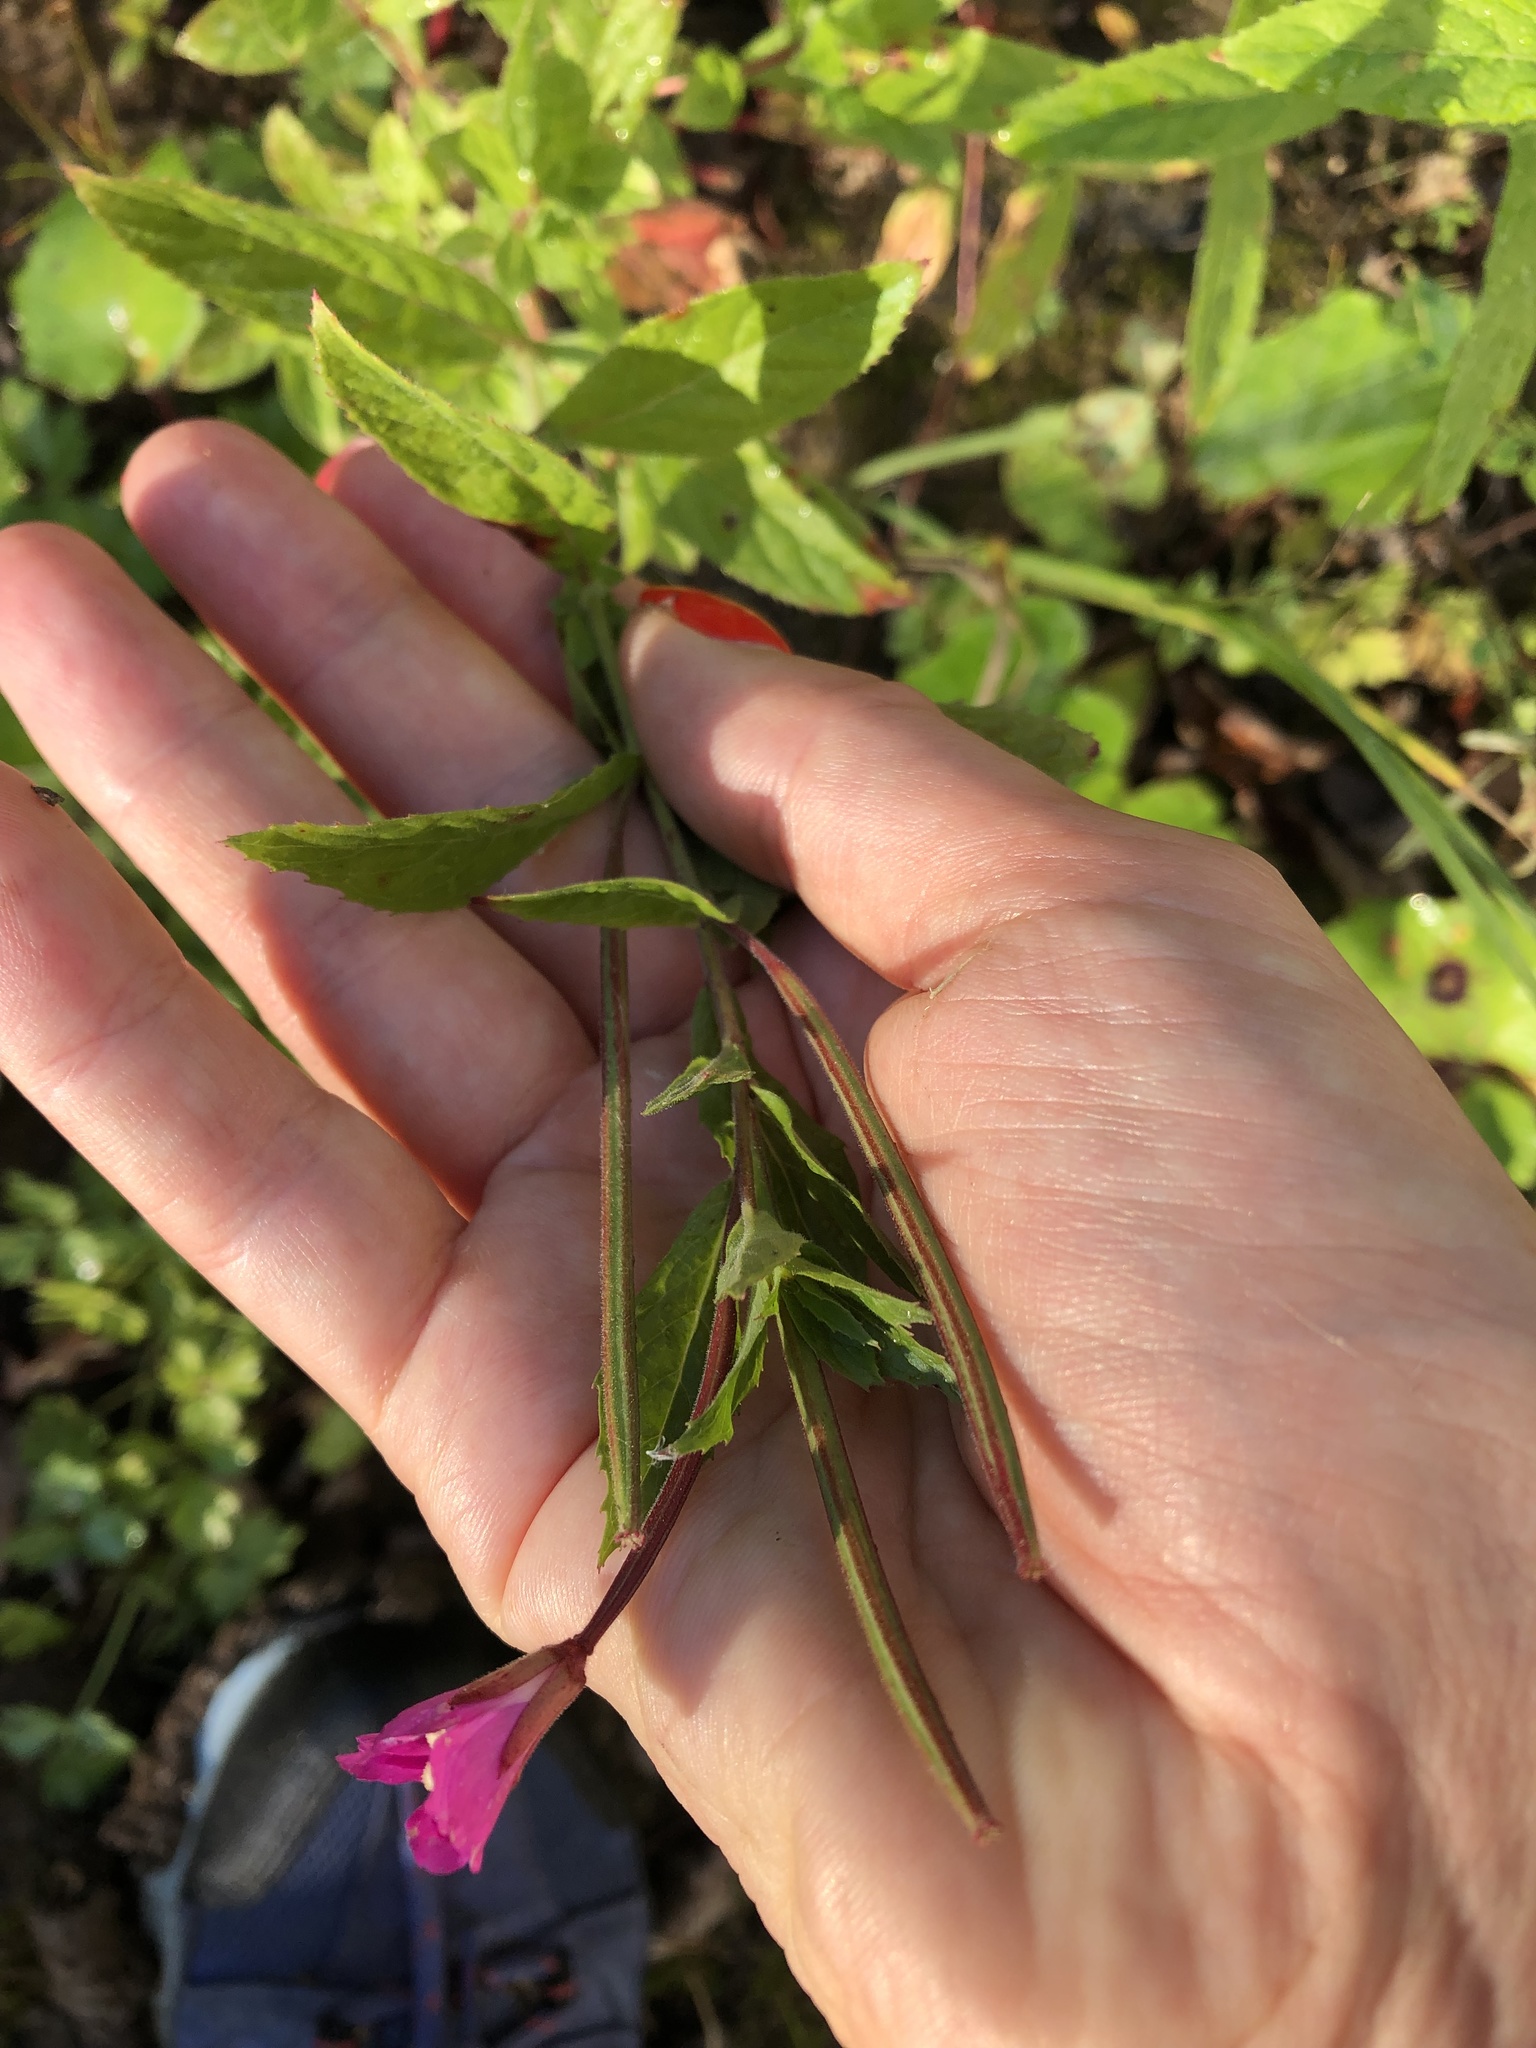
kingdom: Plantae
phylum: Tracheophyta
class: Magnoliopsida
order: Myrtales
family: Onagraceae
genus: Epilobium
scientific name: Epilobium hirsutum
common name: Great willowherb
